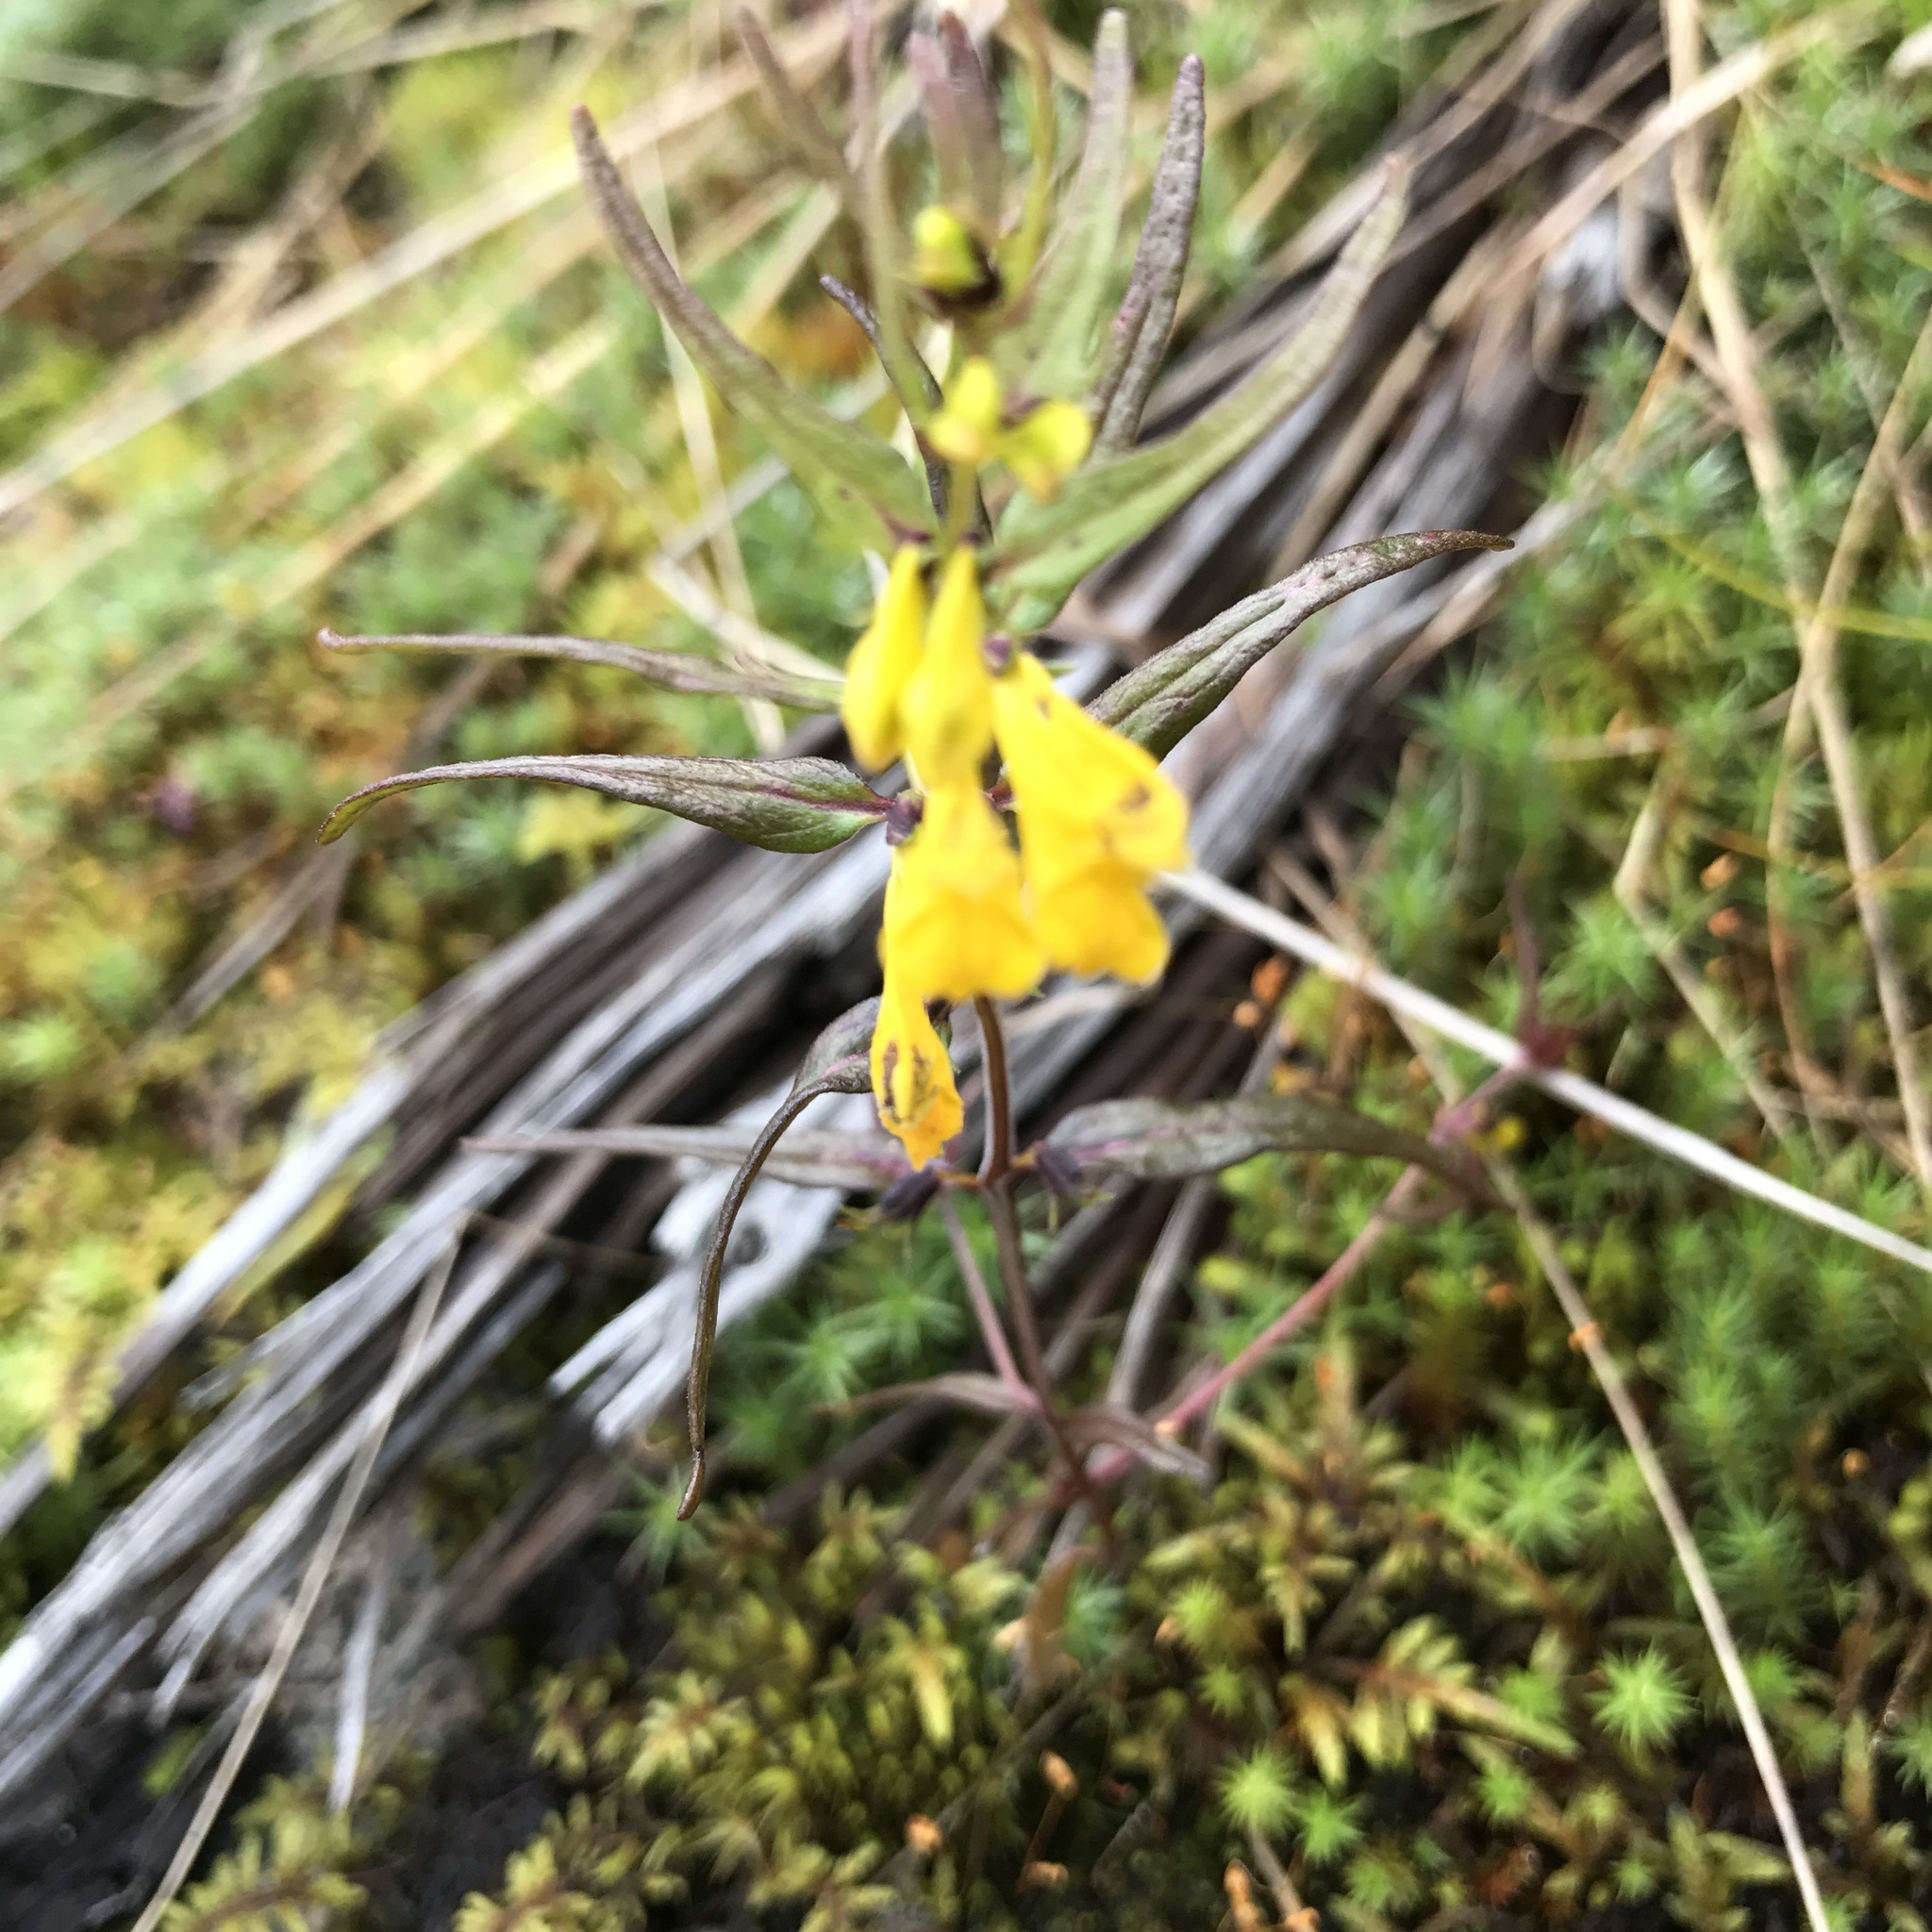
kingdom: Plantae
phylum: Tracheophyta
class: Magnoliopsida
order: Lamiales
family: Orobanchaceae
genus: Melampyrum
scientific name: Melampyrum sylvaticum
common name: Small cow-wheat
